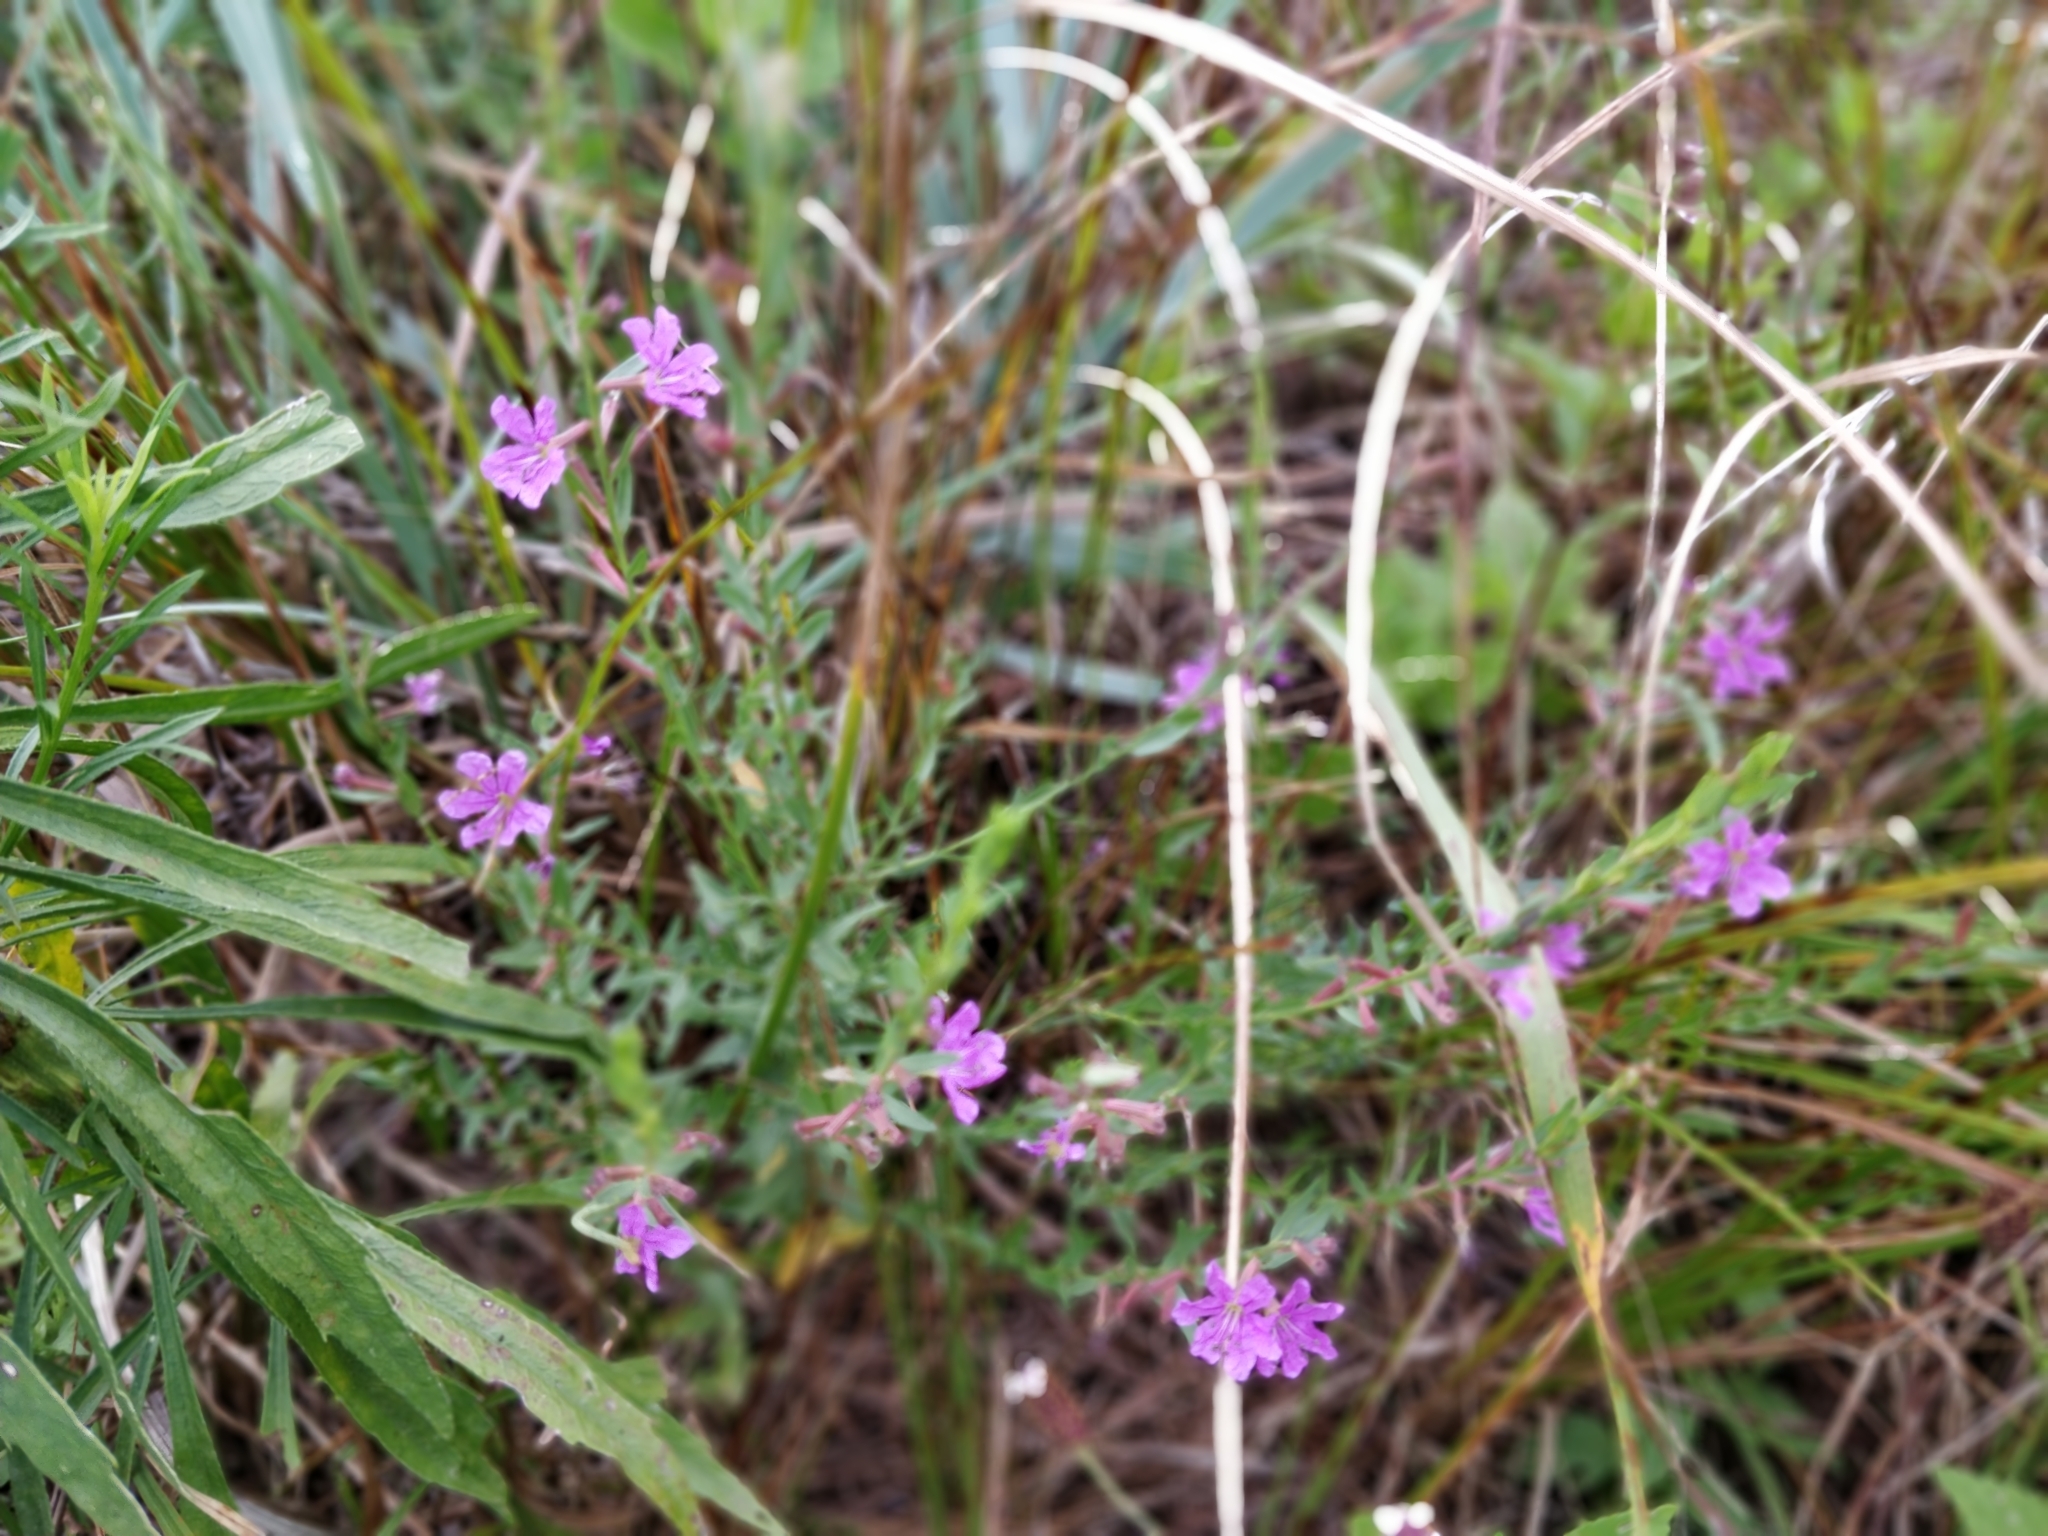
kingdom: Plantae
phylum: Tracheophyta
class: Magnoliopsida
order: Myrtales
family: Lythraceae
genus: Lythrum
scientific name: Lythrum californicum
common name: California loosestrife
